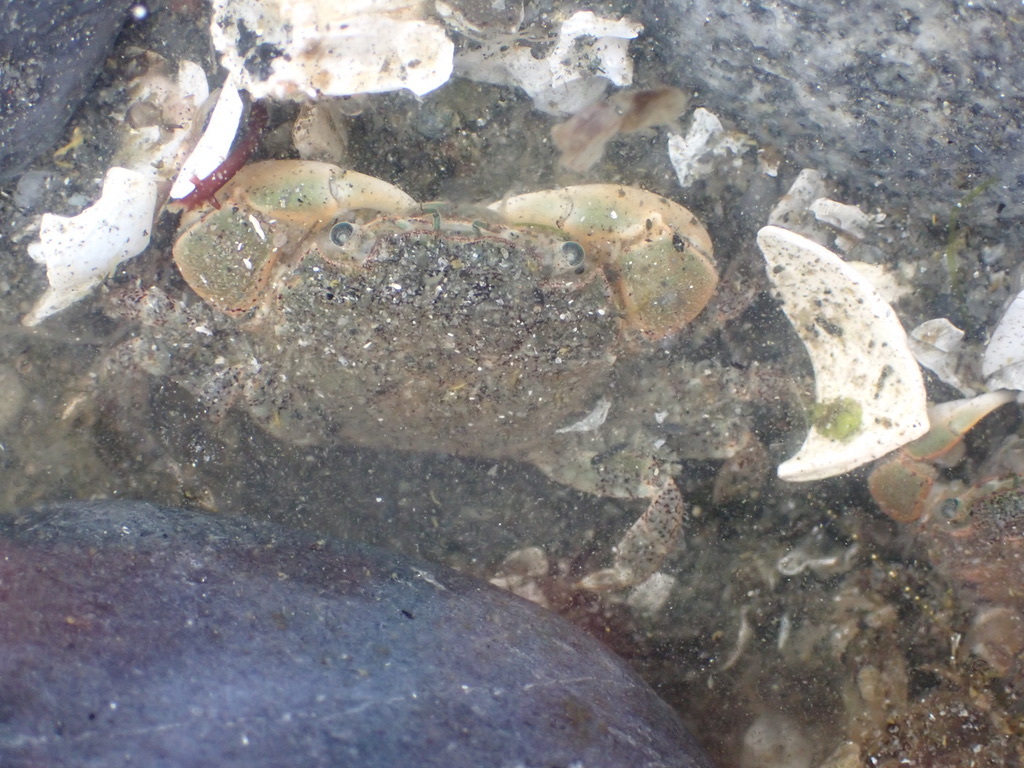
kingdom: Animalia
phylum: Arthropoda
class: Malacostraca
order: Decapoda
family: Varunidae
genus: Hemigrapsus
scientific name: Hemigrapsus oregonensis
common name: Yellow shore crab
